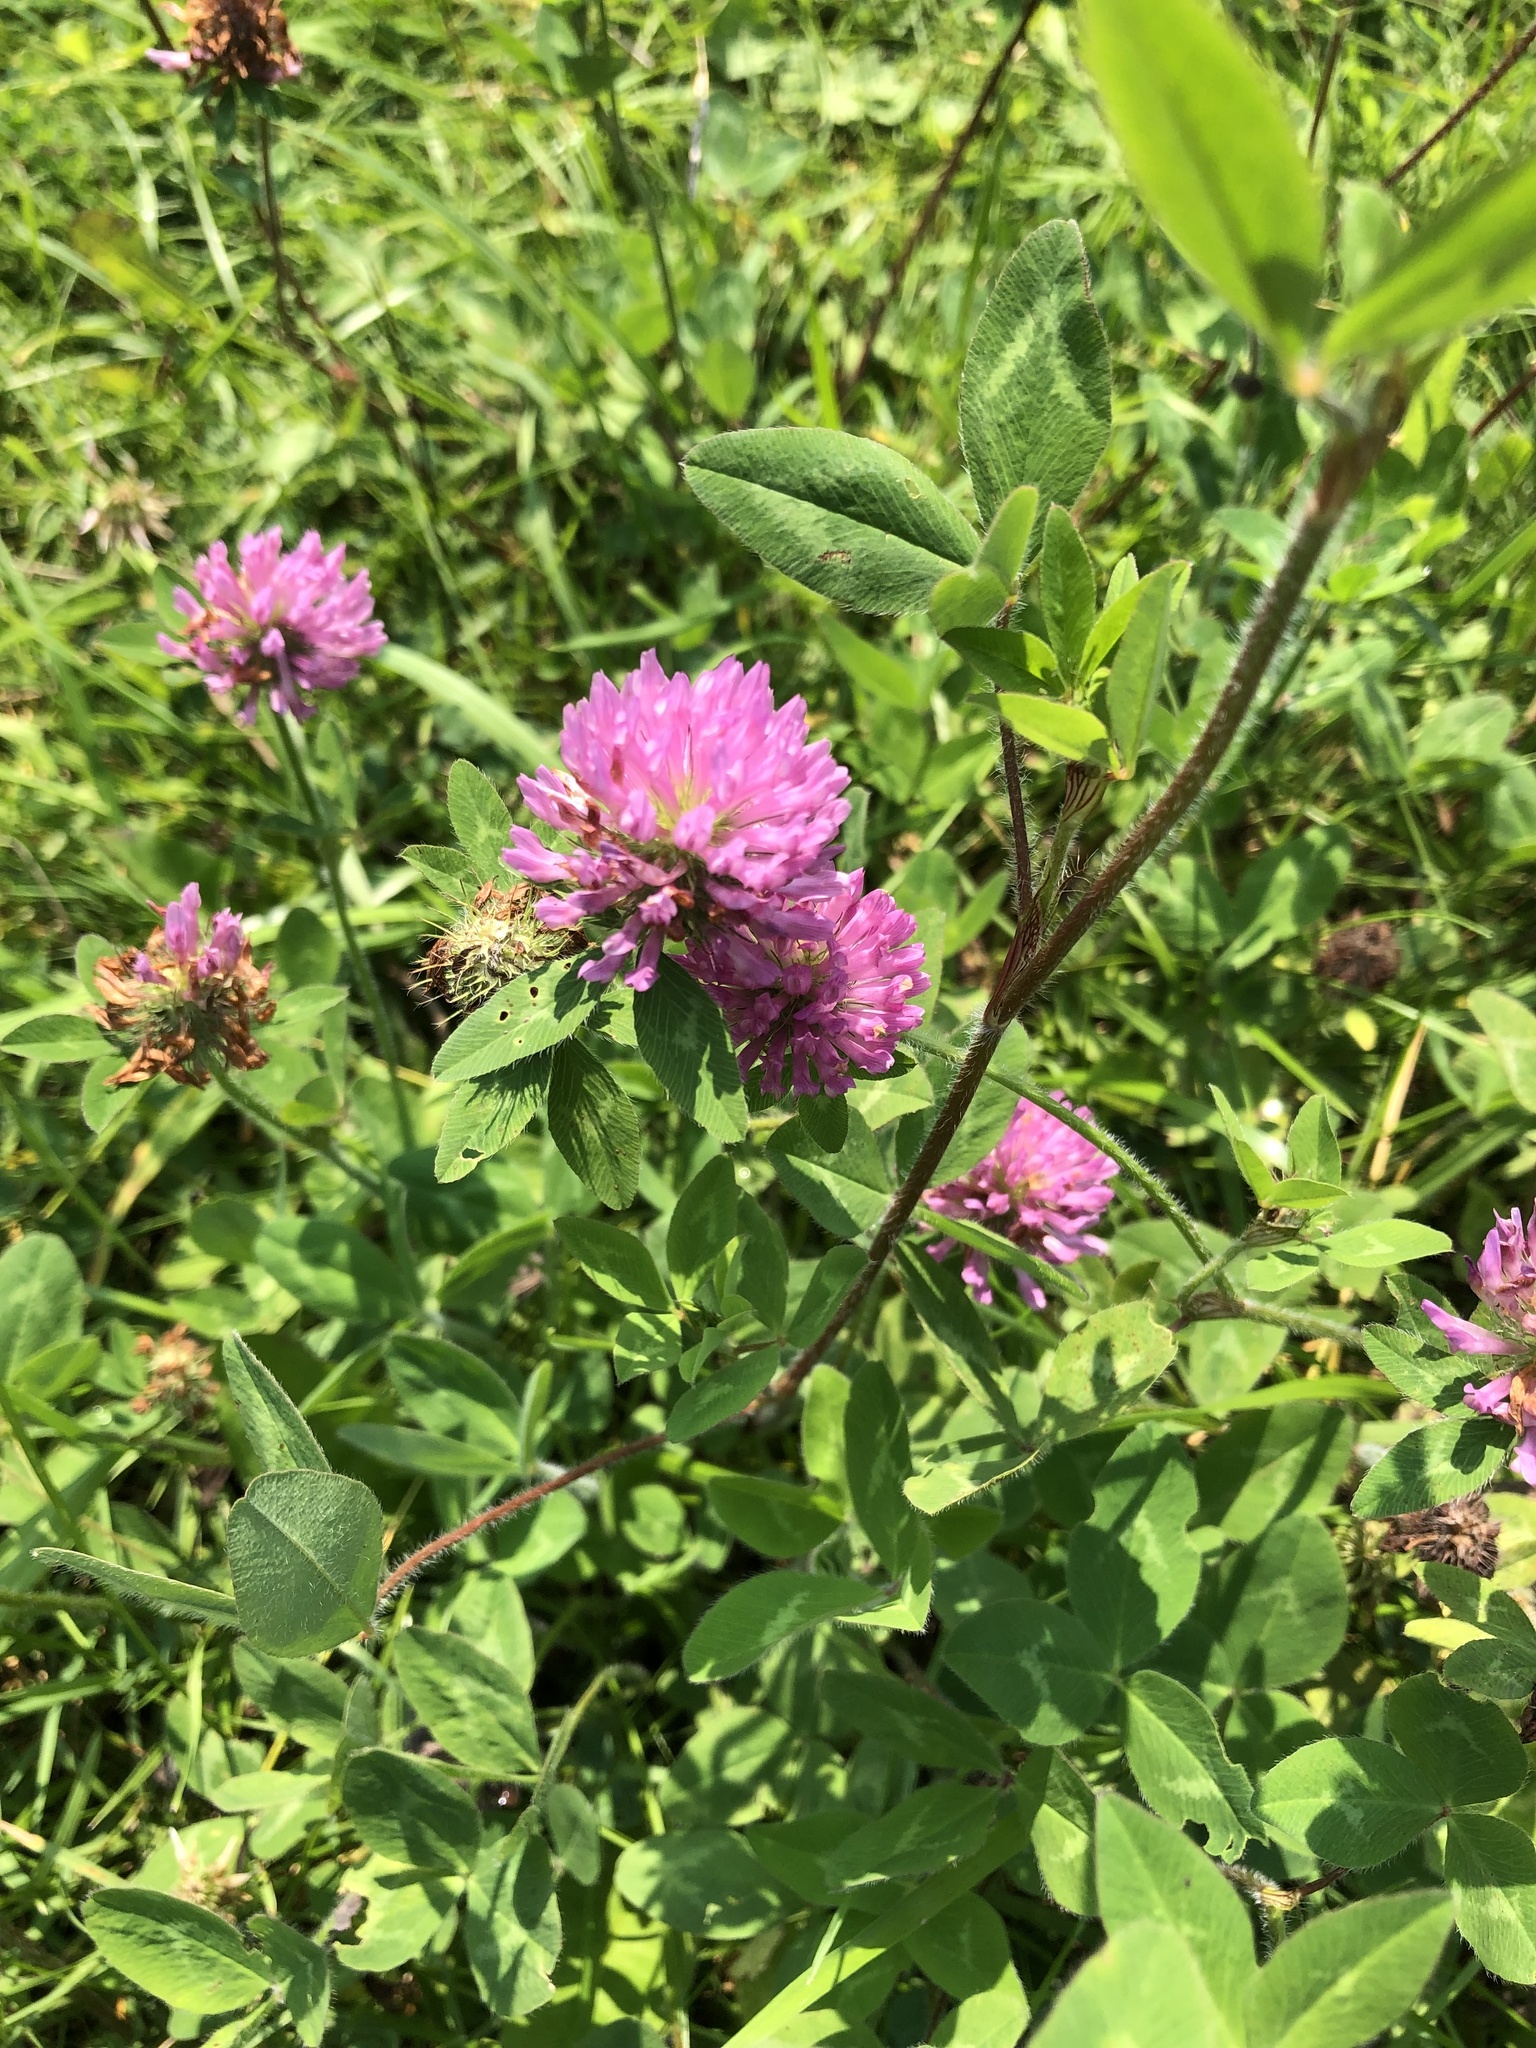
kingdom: Plantae
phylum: Tracheophyta
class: Magnoliopsida
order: Fabales
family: Fabaceae
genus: Trifolium
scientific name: Trifolium pratense
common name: Red clover
